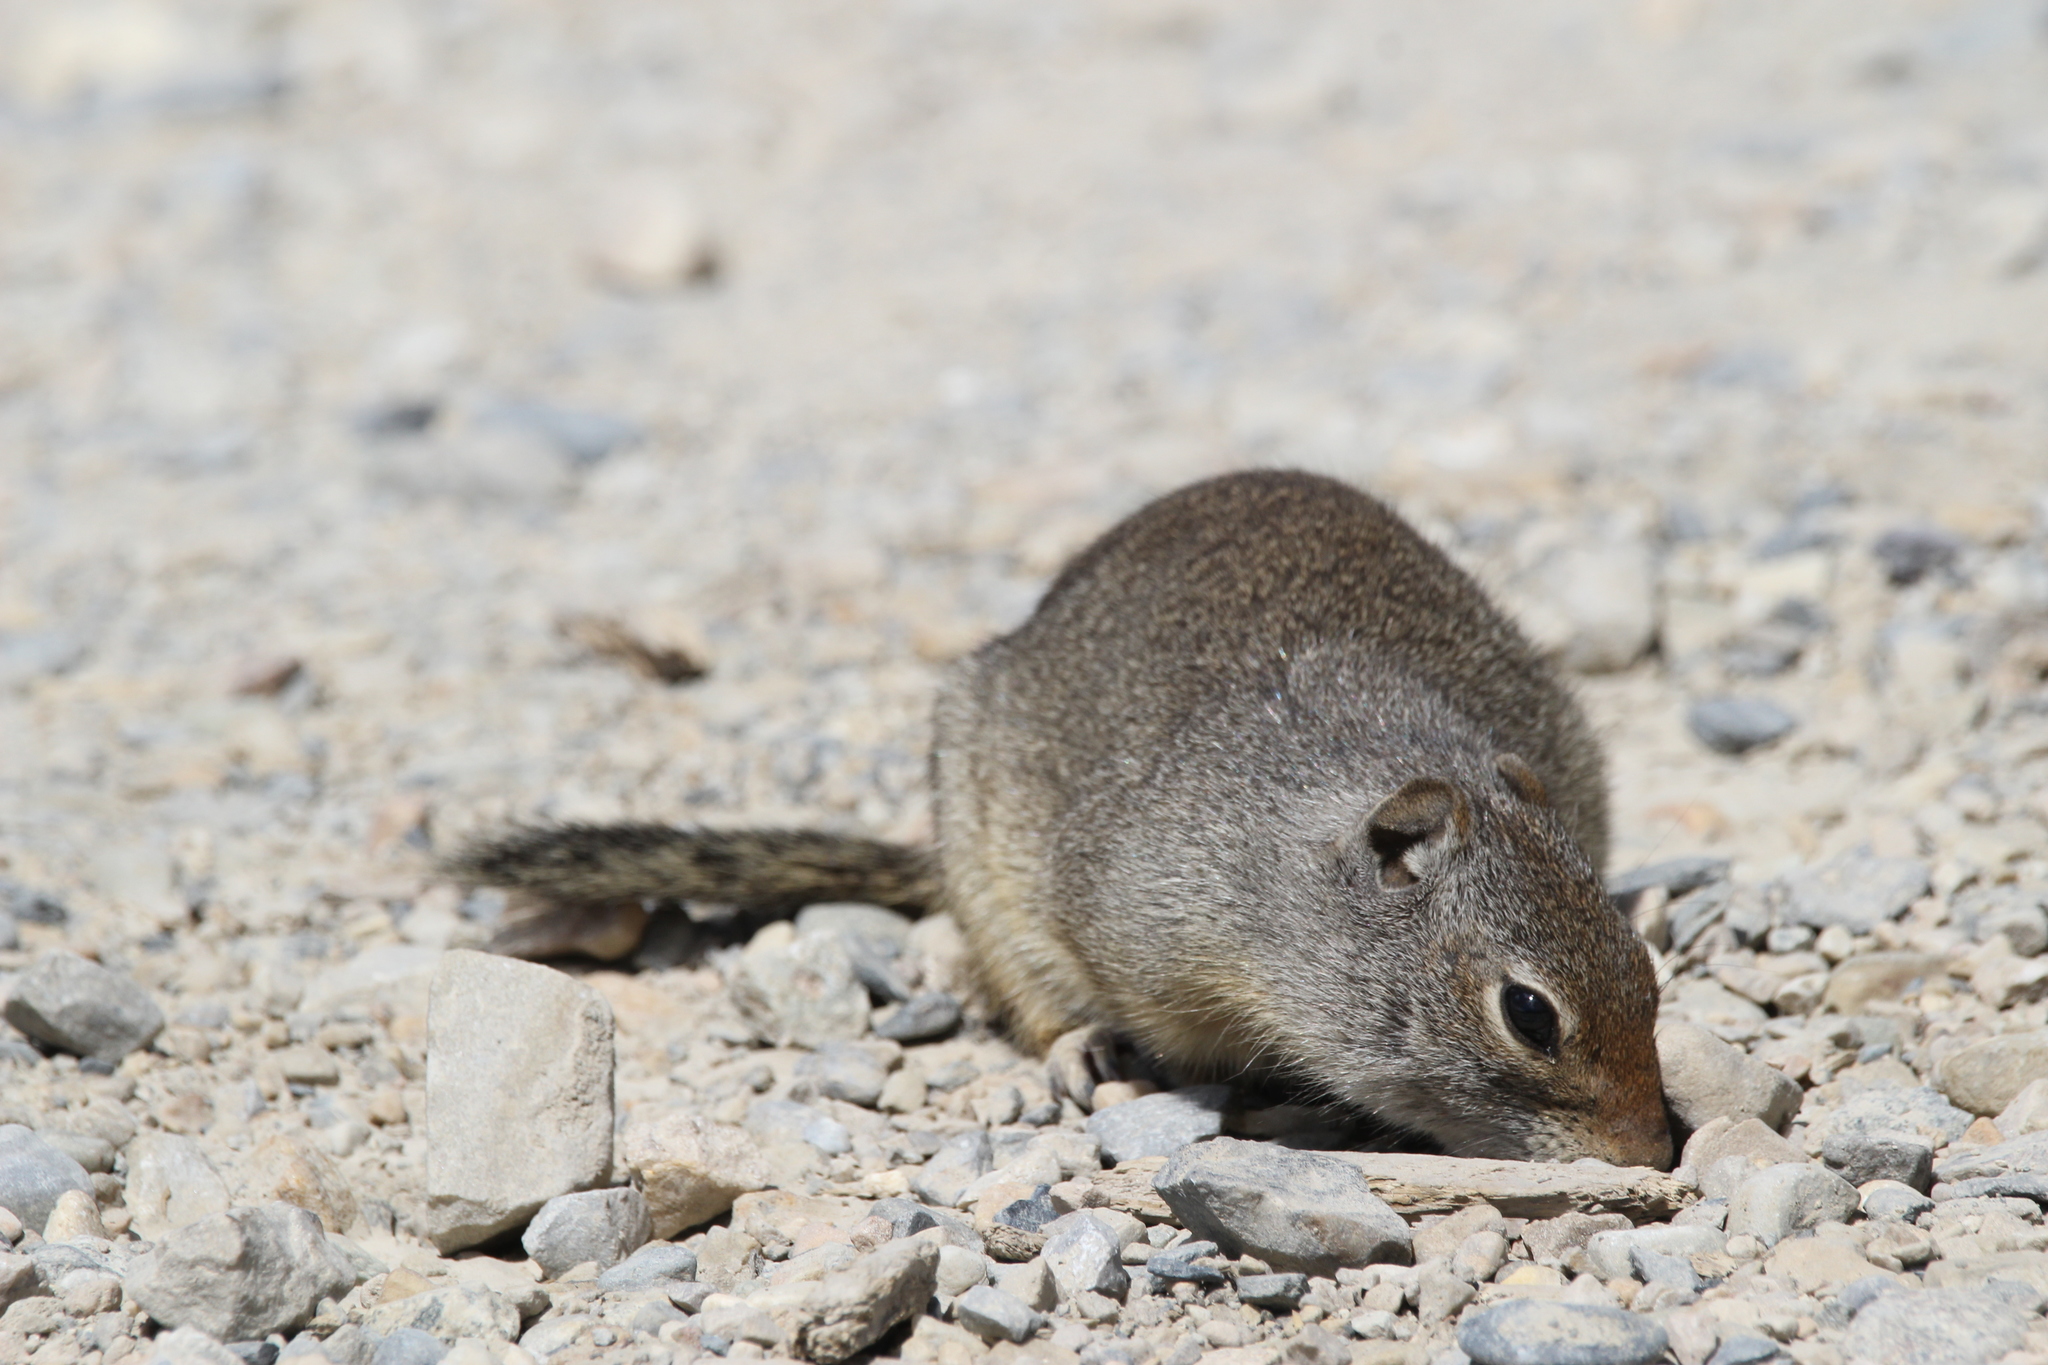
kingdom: Animalia
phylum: Chordata
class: Mammalia
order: Rodentia
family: Sciuridae
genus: Urocitellus
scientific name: Urocitellus armatus
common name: Uinta ground squirrel
